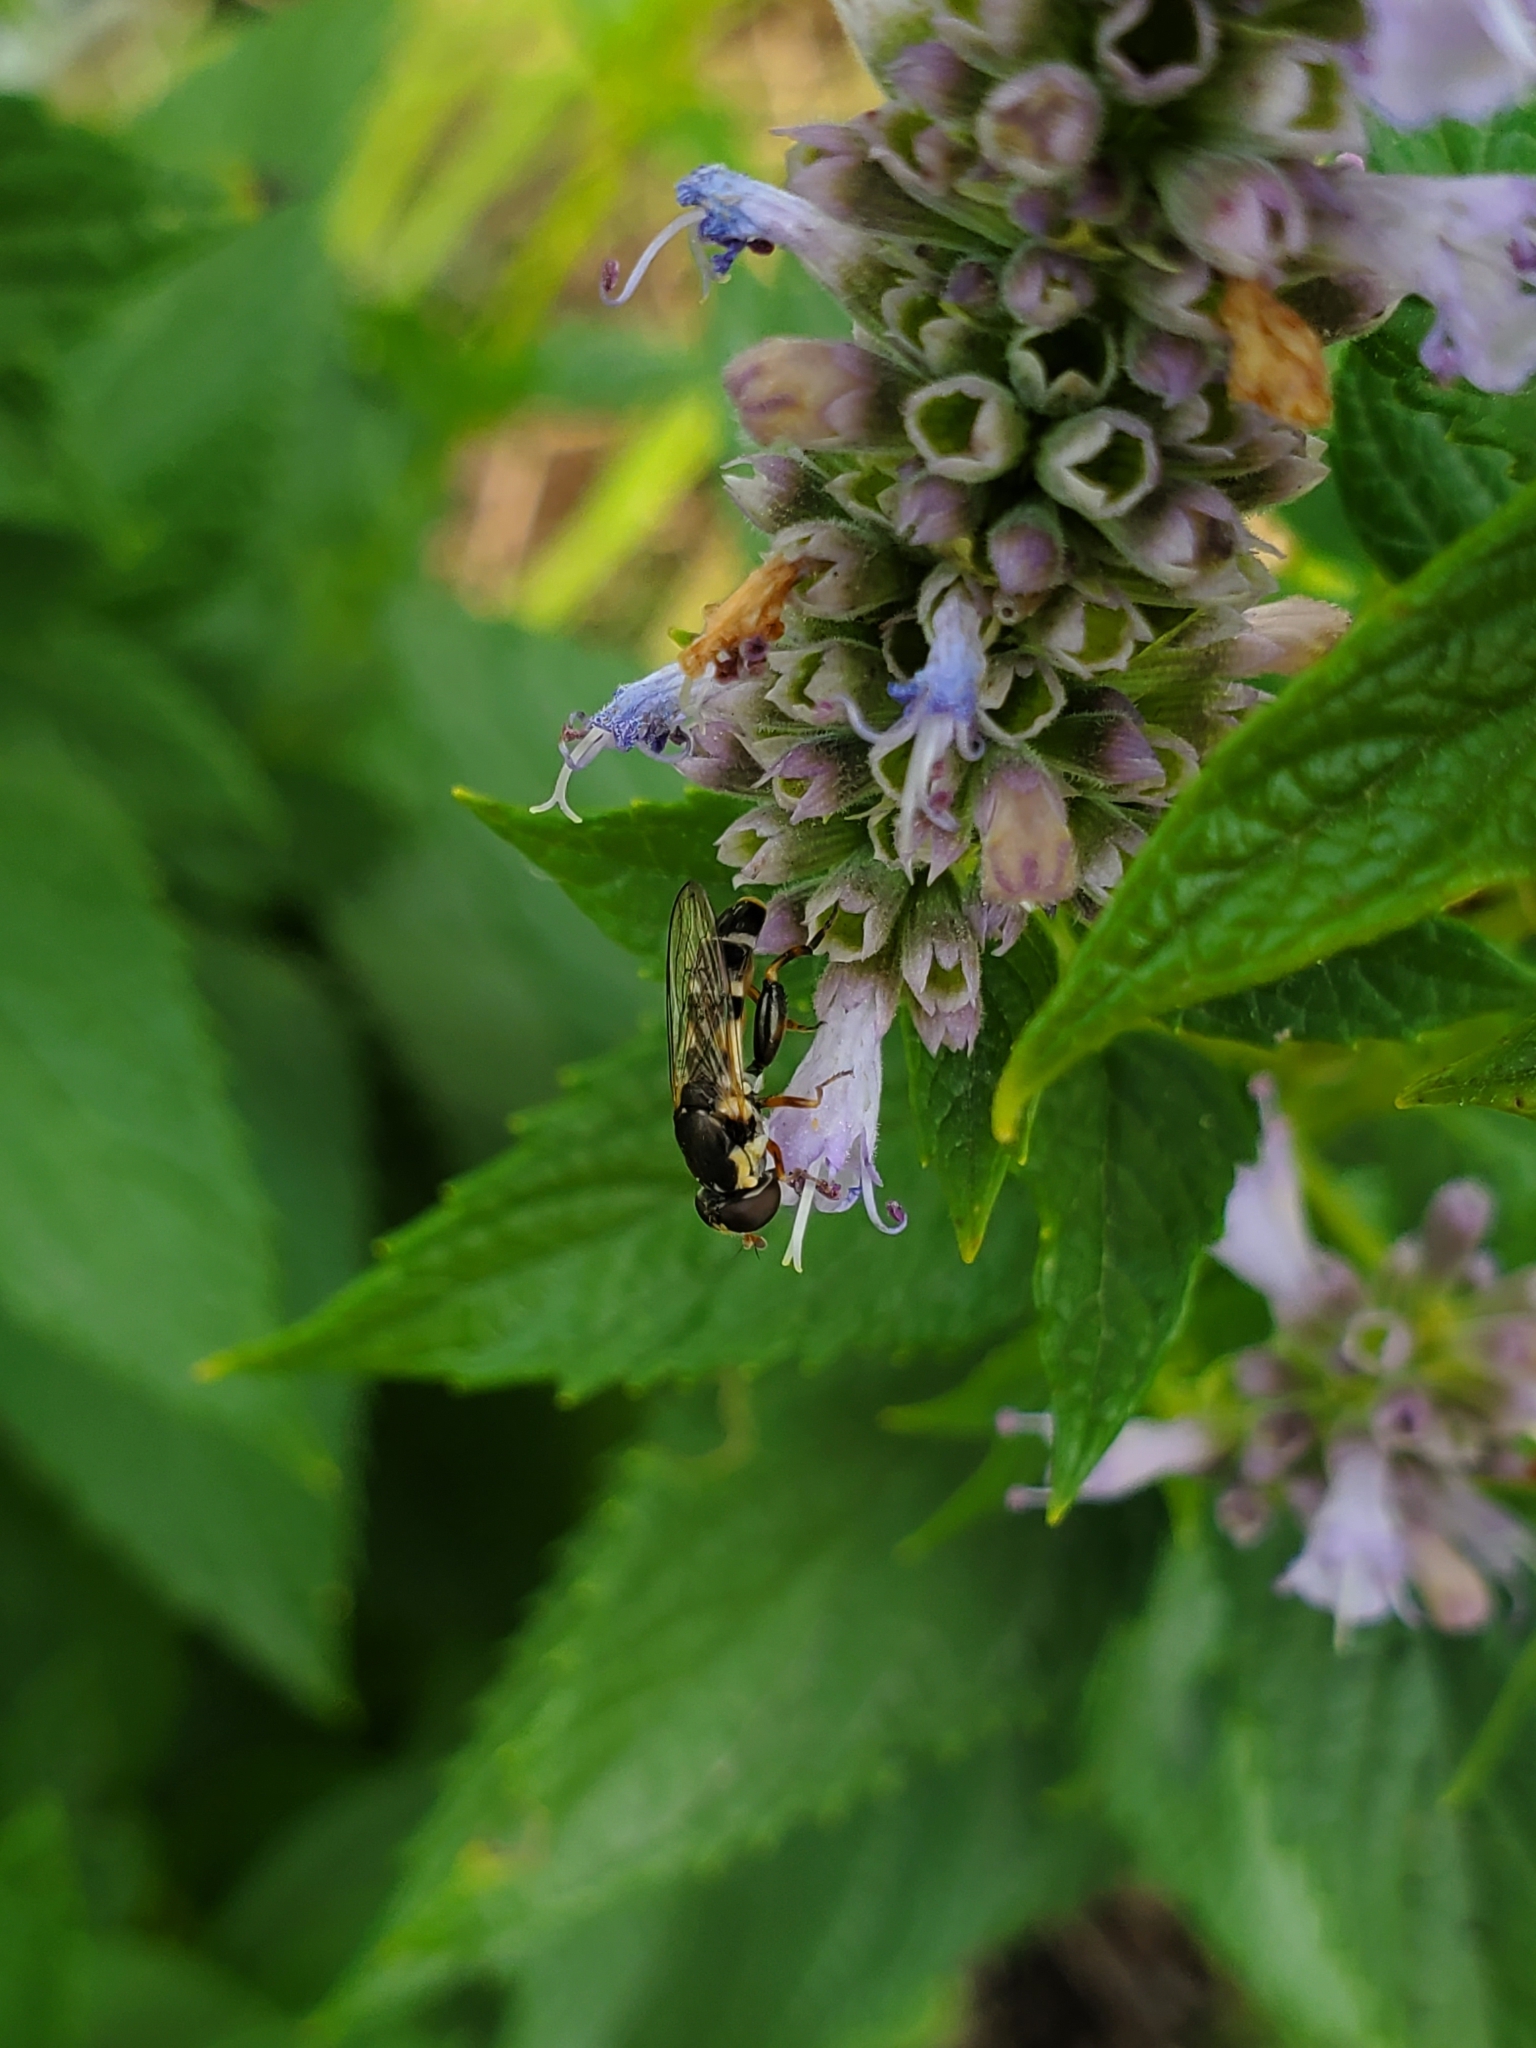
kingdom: Animalia
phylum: Arthropoda
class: Insecta
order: Diptera
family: Syrphidae
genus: Syritta
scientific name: Syritta pipiens
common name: Hover fly
